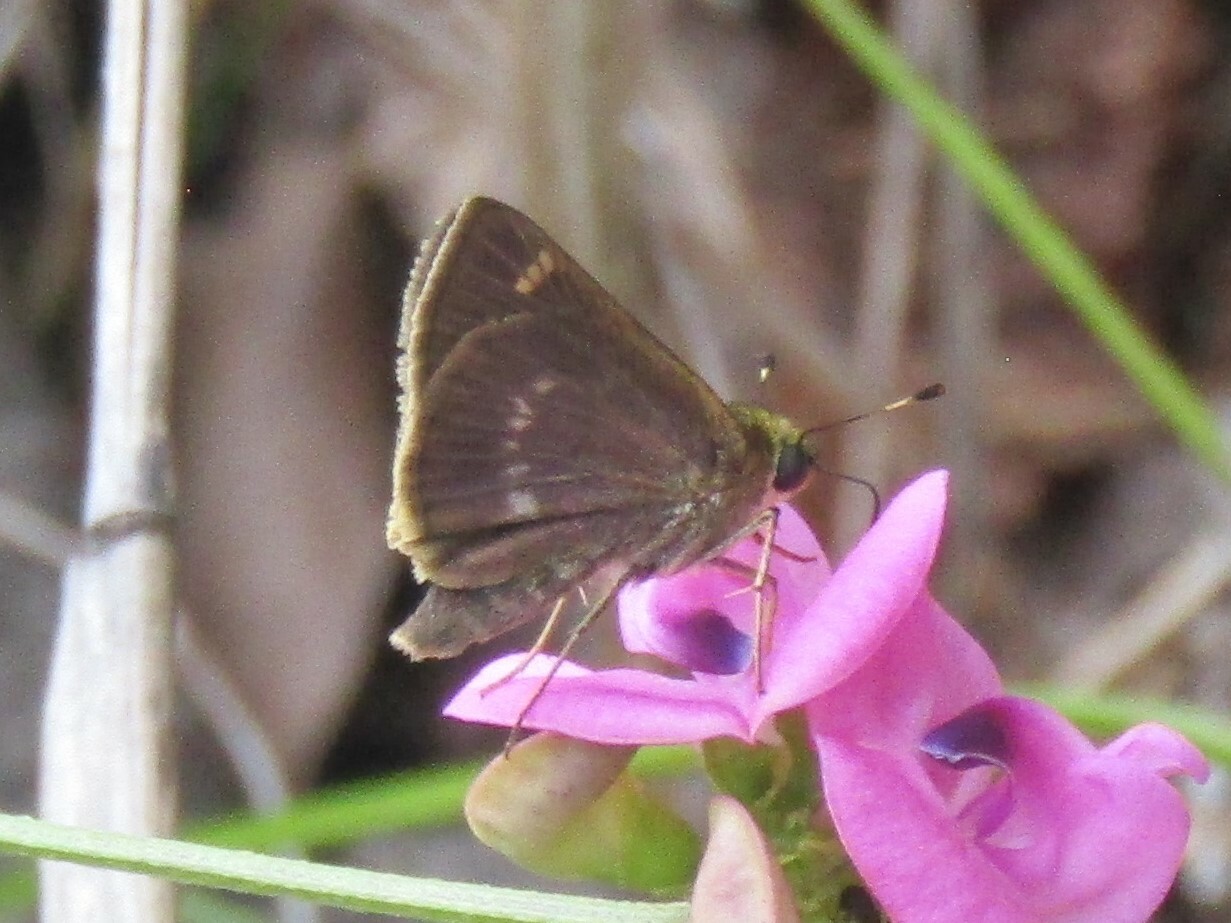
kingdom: Animalia
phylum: Arthropoda
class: Insecta
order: Lepidoptera
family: Hesperiidae
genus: Vernia
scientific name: Vernia verna
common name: Little glassywing
